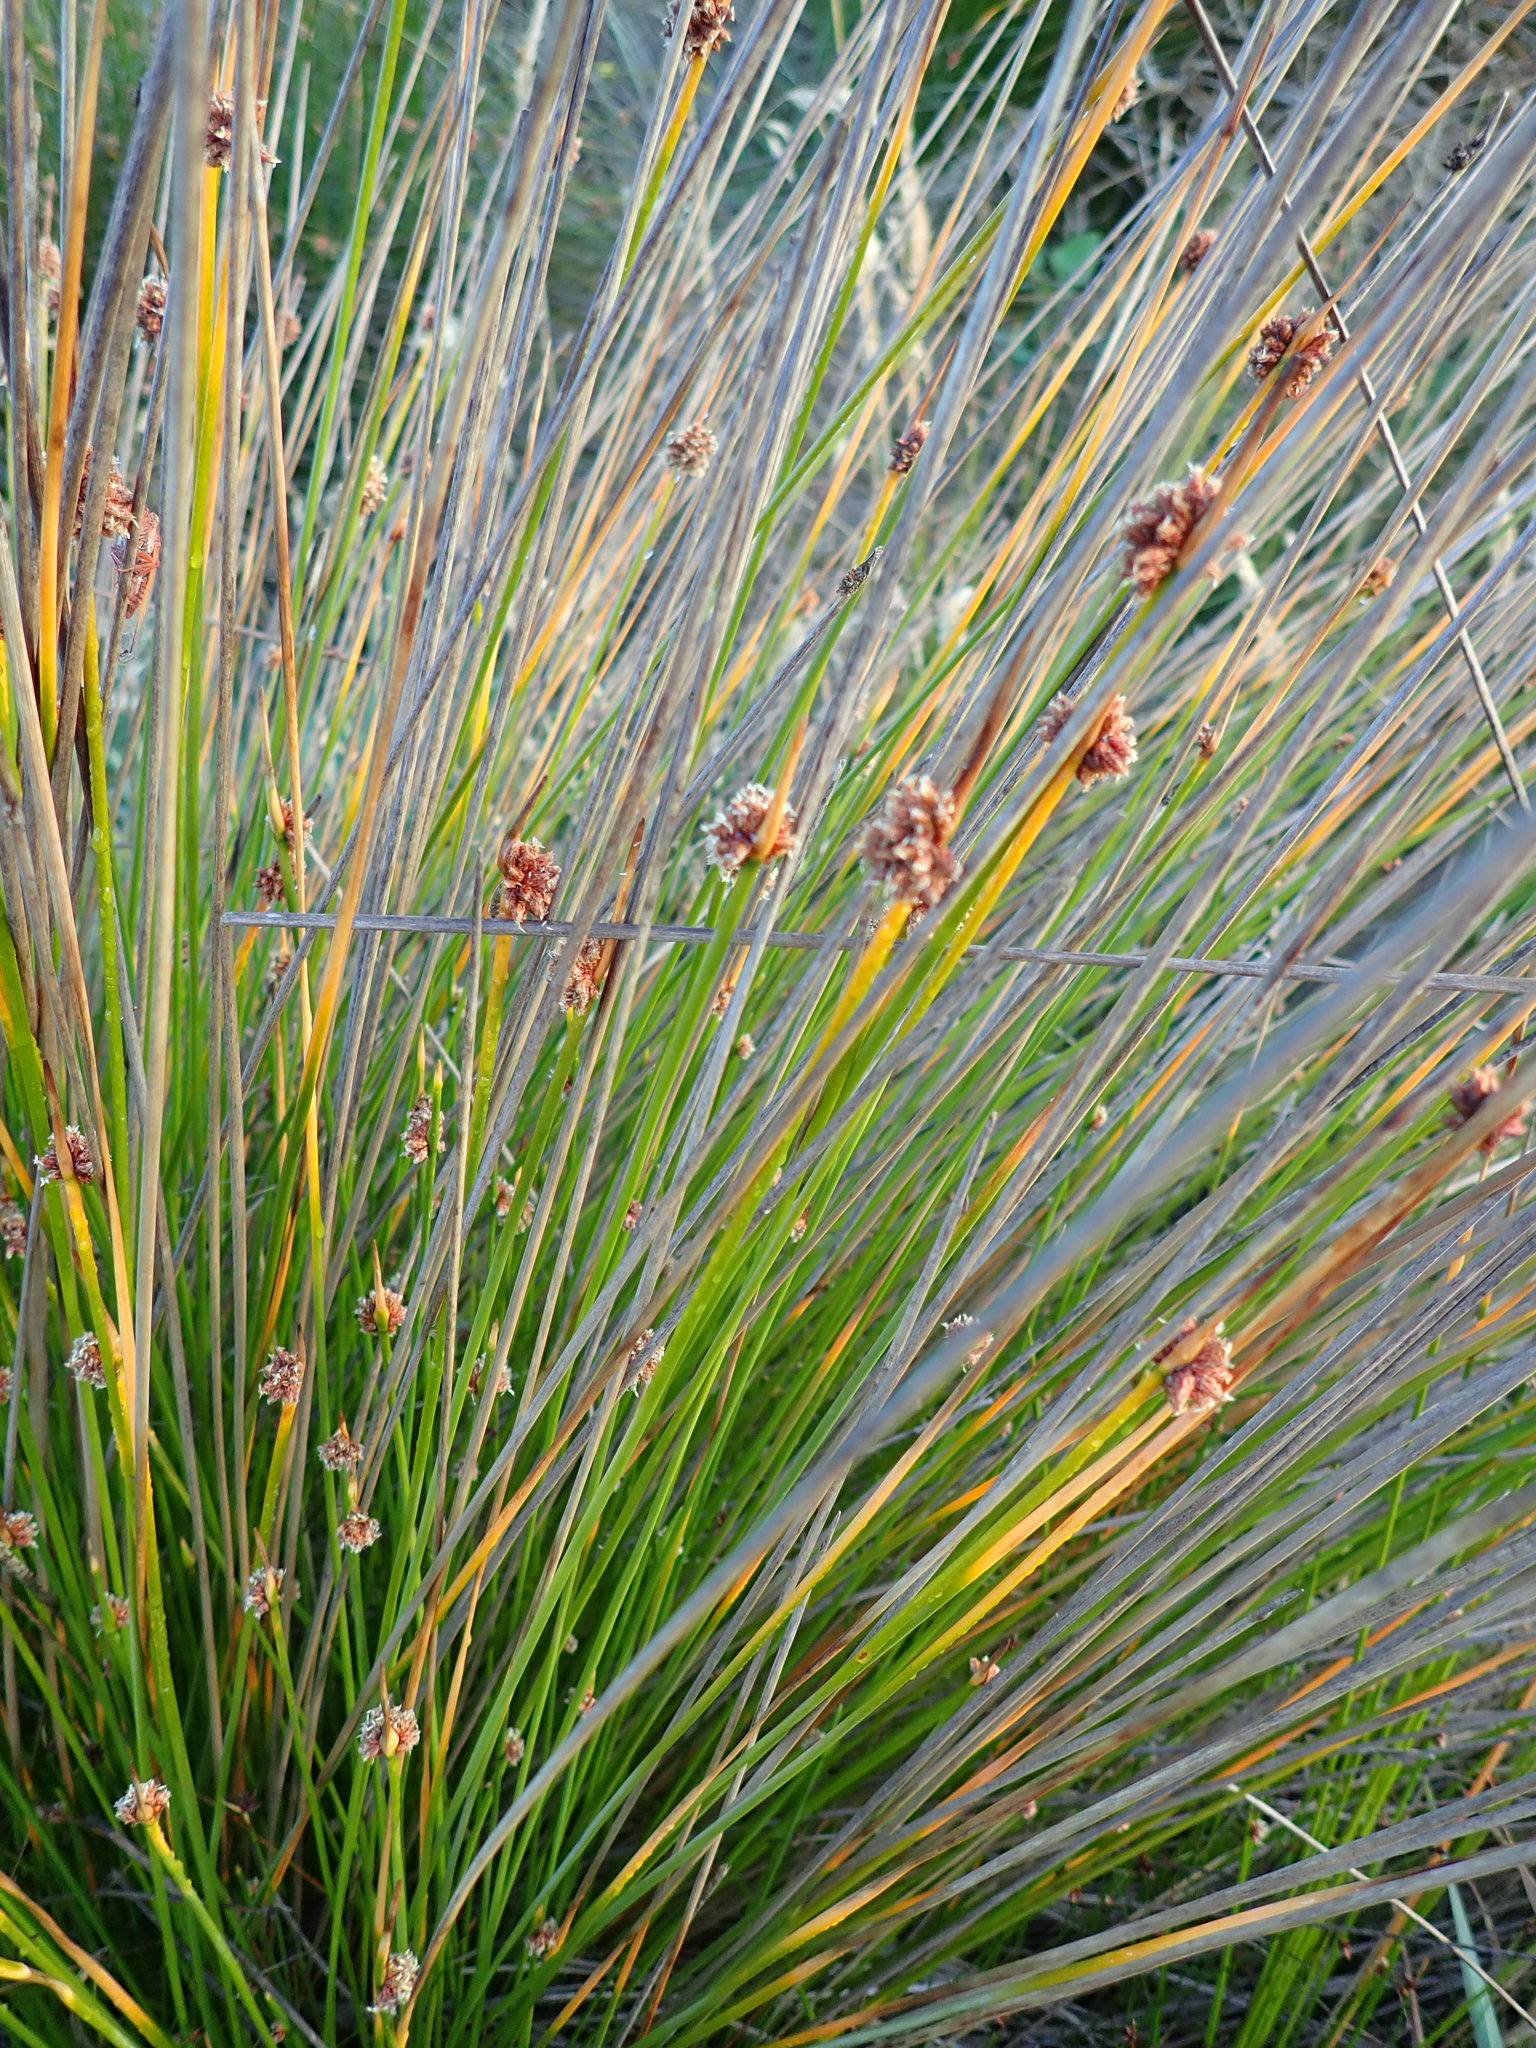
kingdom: Plantae
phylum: Tracheophyta
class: Liliopsida
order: Poales
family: Cyperaceae
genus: Ficinia
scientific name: Ficinia nodosa
